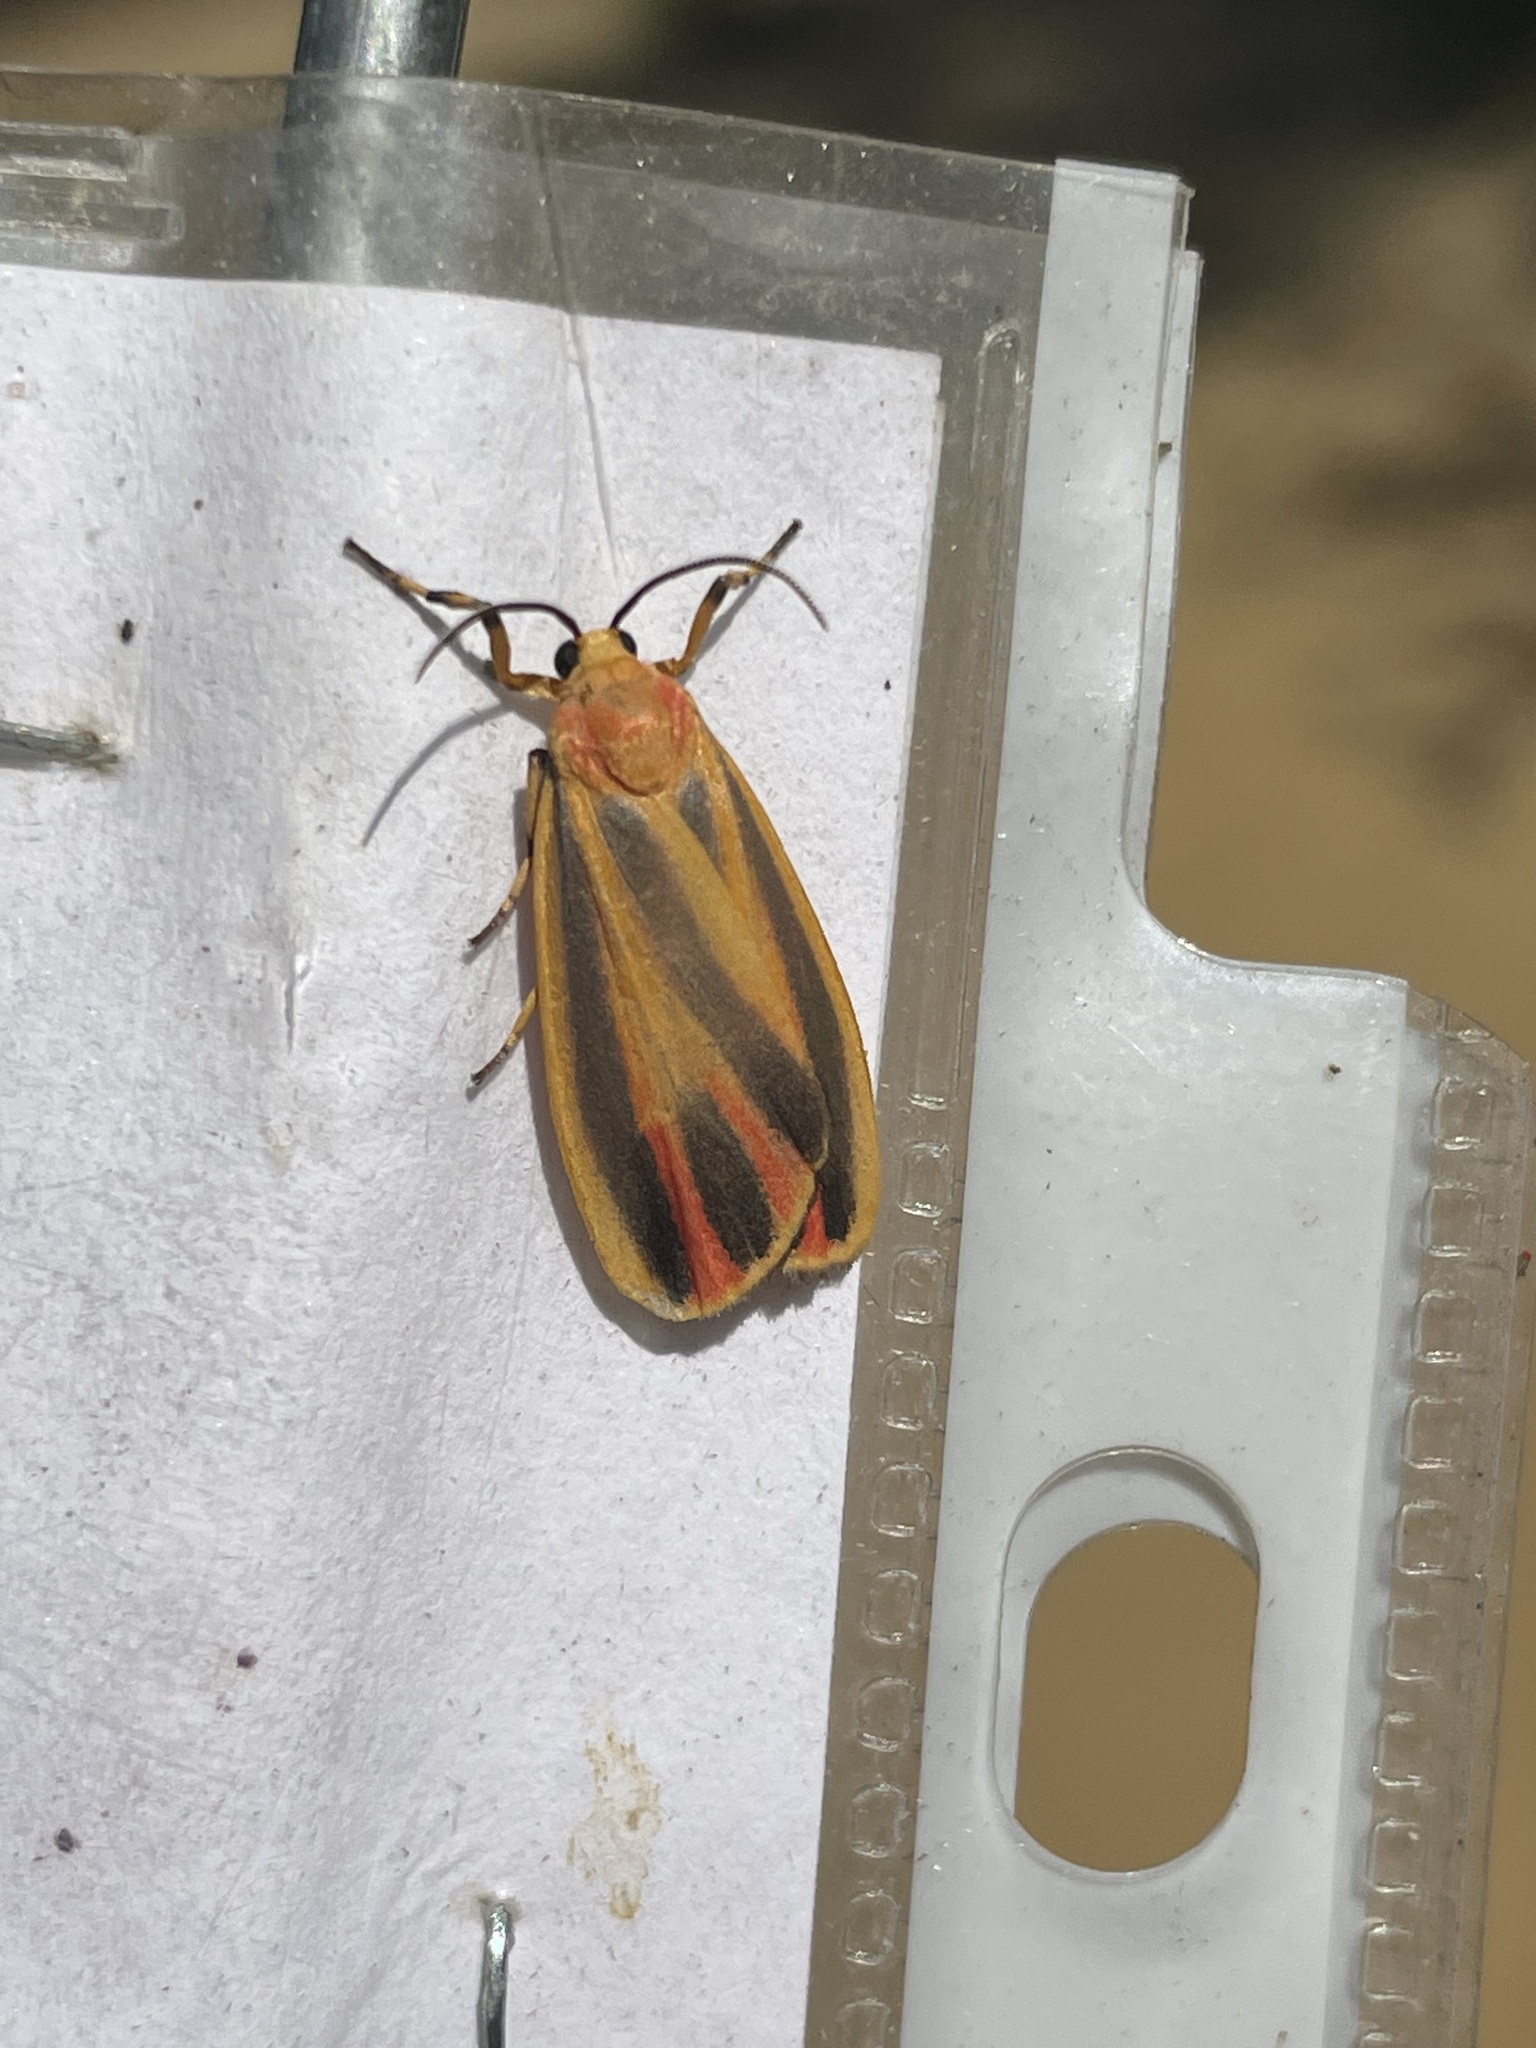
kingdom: Animalia
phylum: Arthropoda
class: Insecta
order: Lepidoptera
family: Erebidae
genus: Hypoprepia
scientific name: Hypoprepia fucosa
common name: Painted lichen moth
